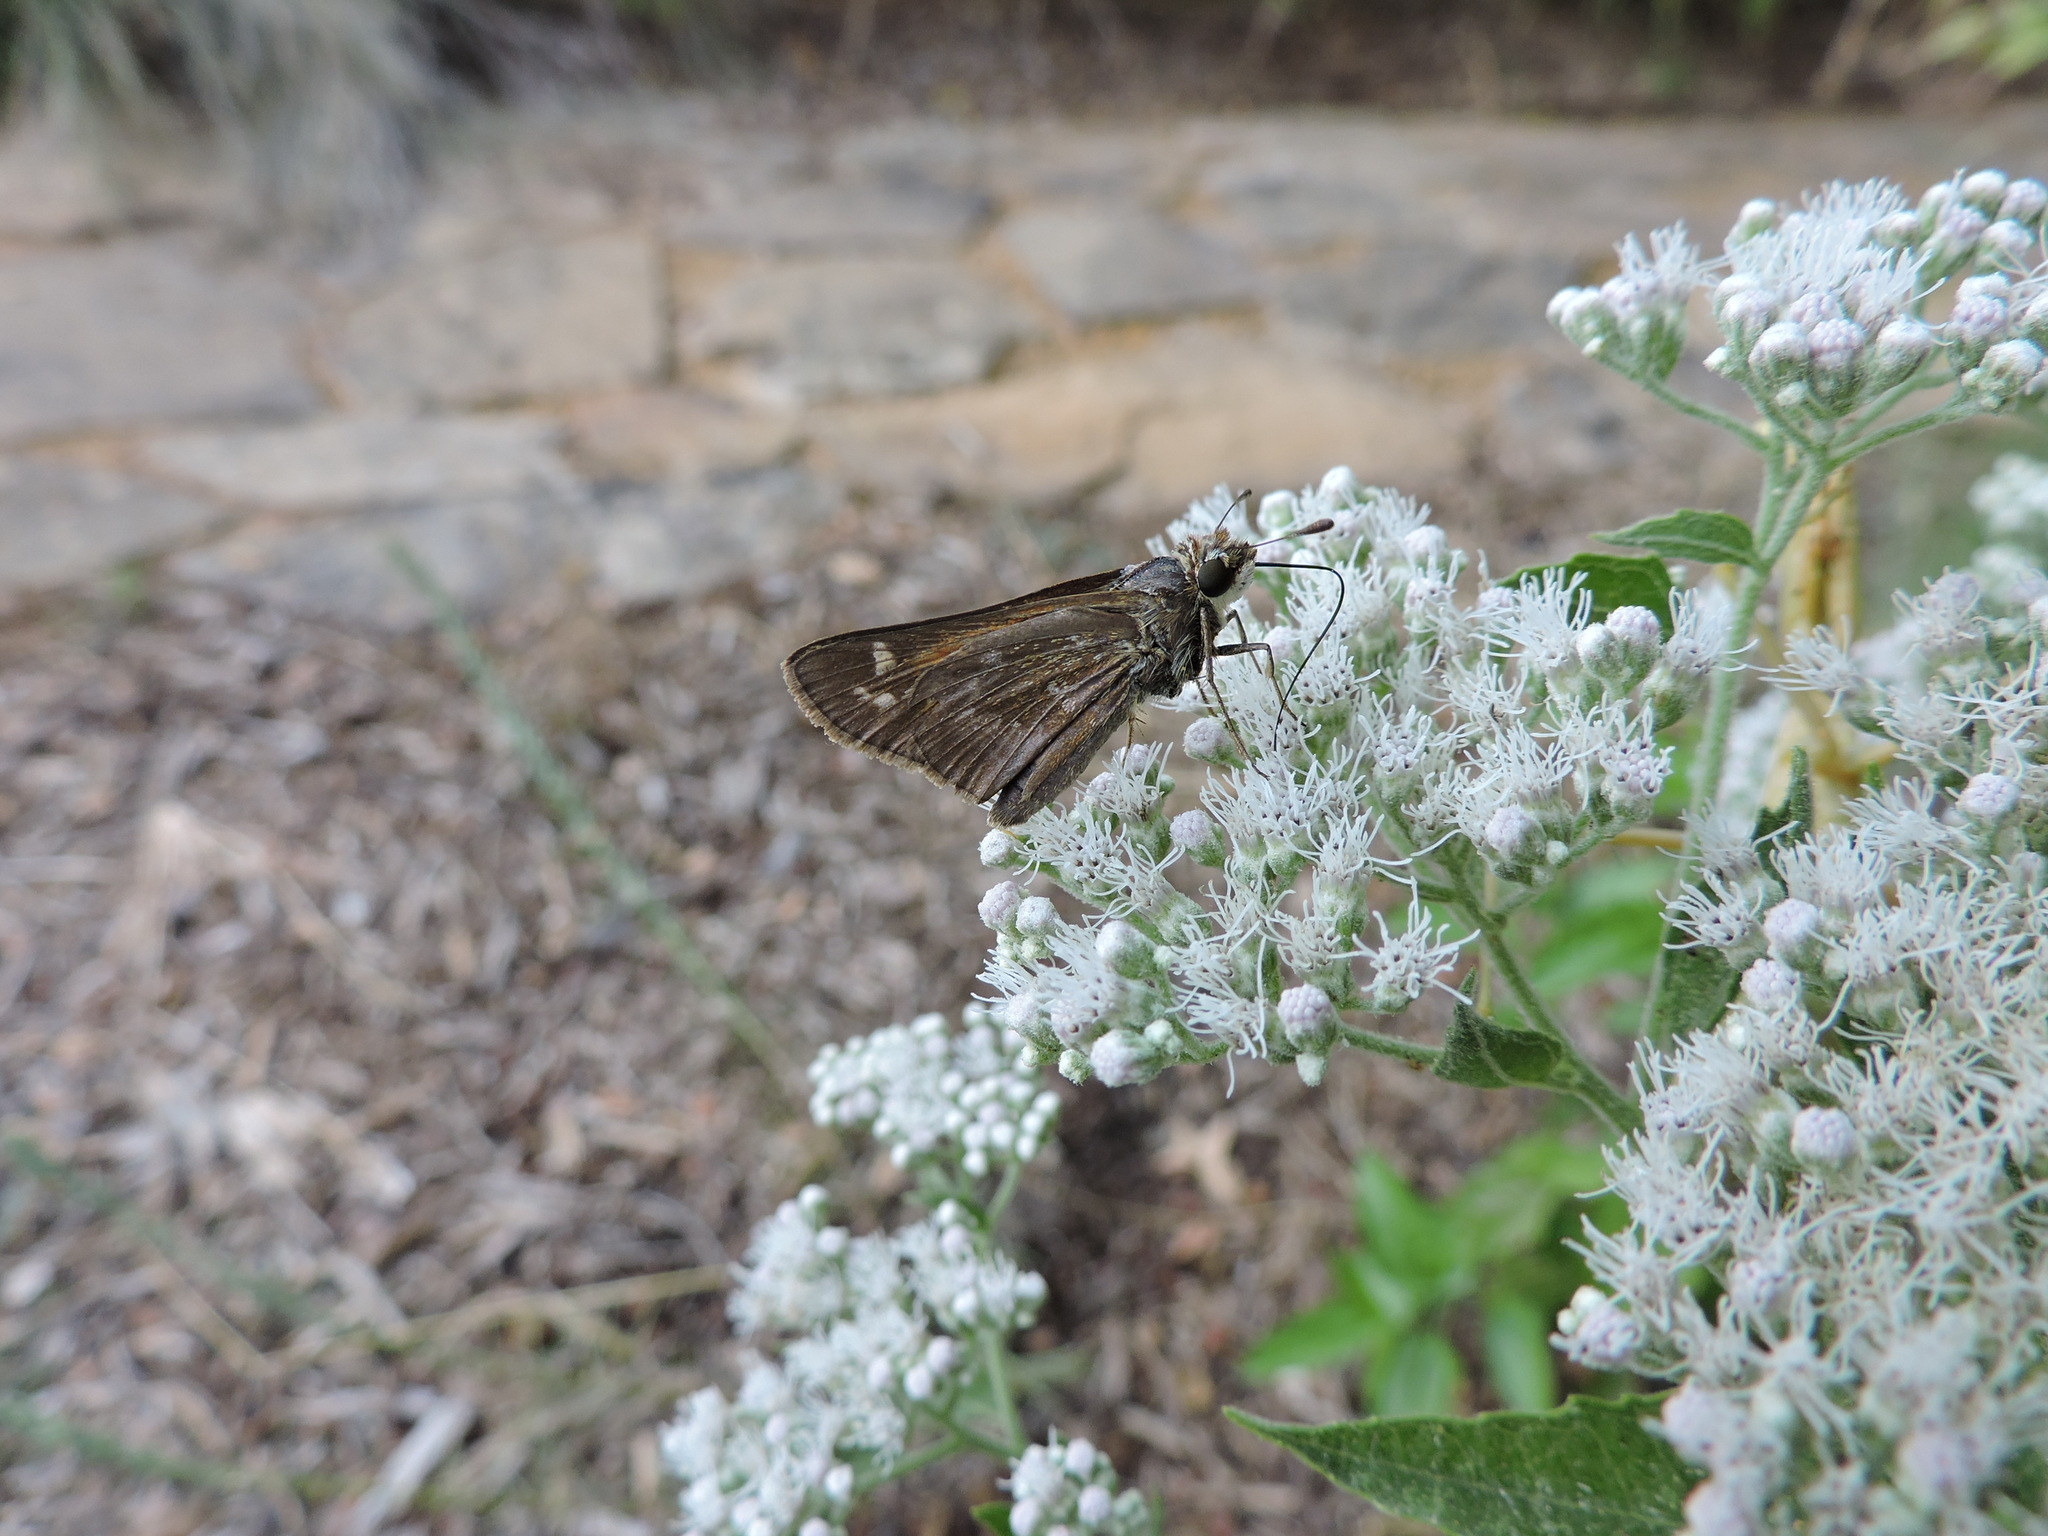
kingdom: Animalia
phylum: Arthropoda
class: Insecta
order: Lepidoptera
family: Hesperiidae
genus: Atalopedes
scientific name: Atalopedes
